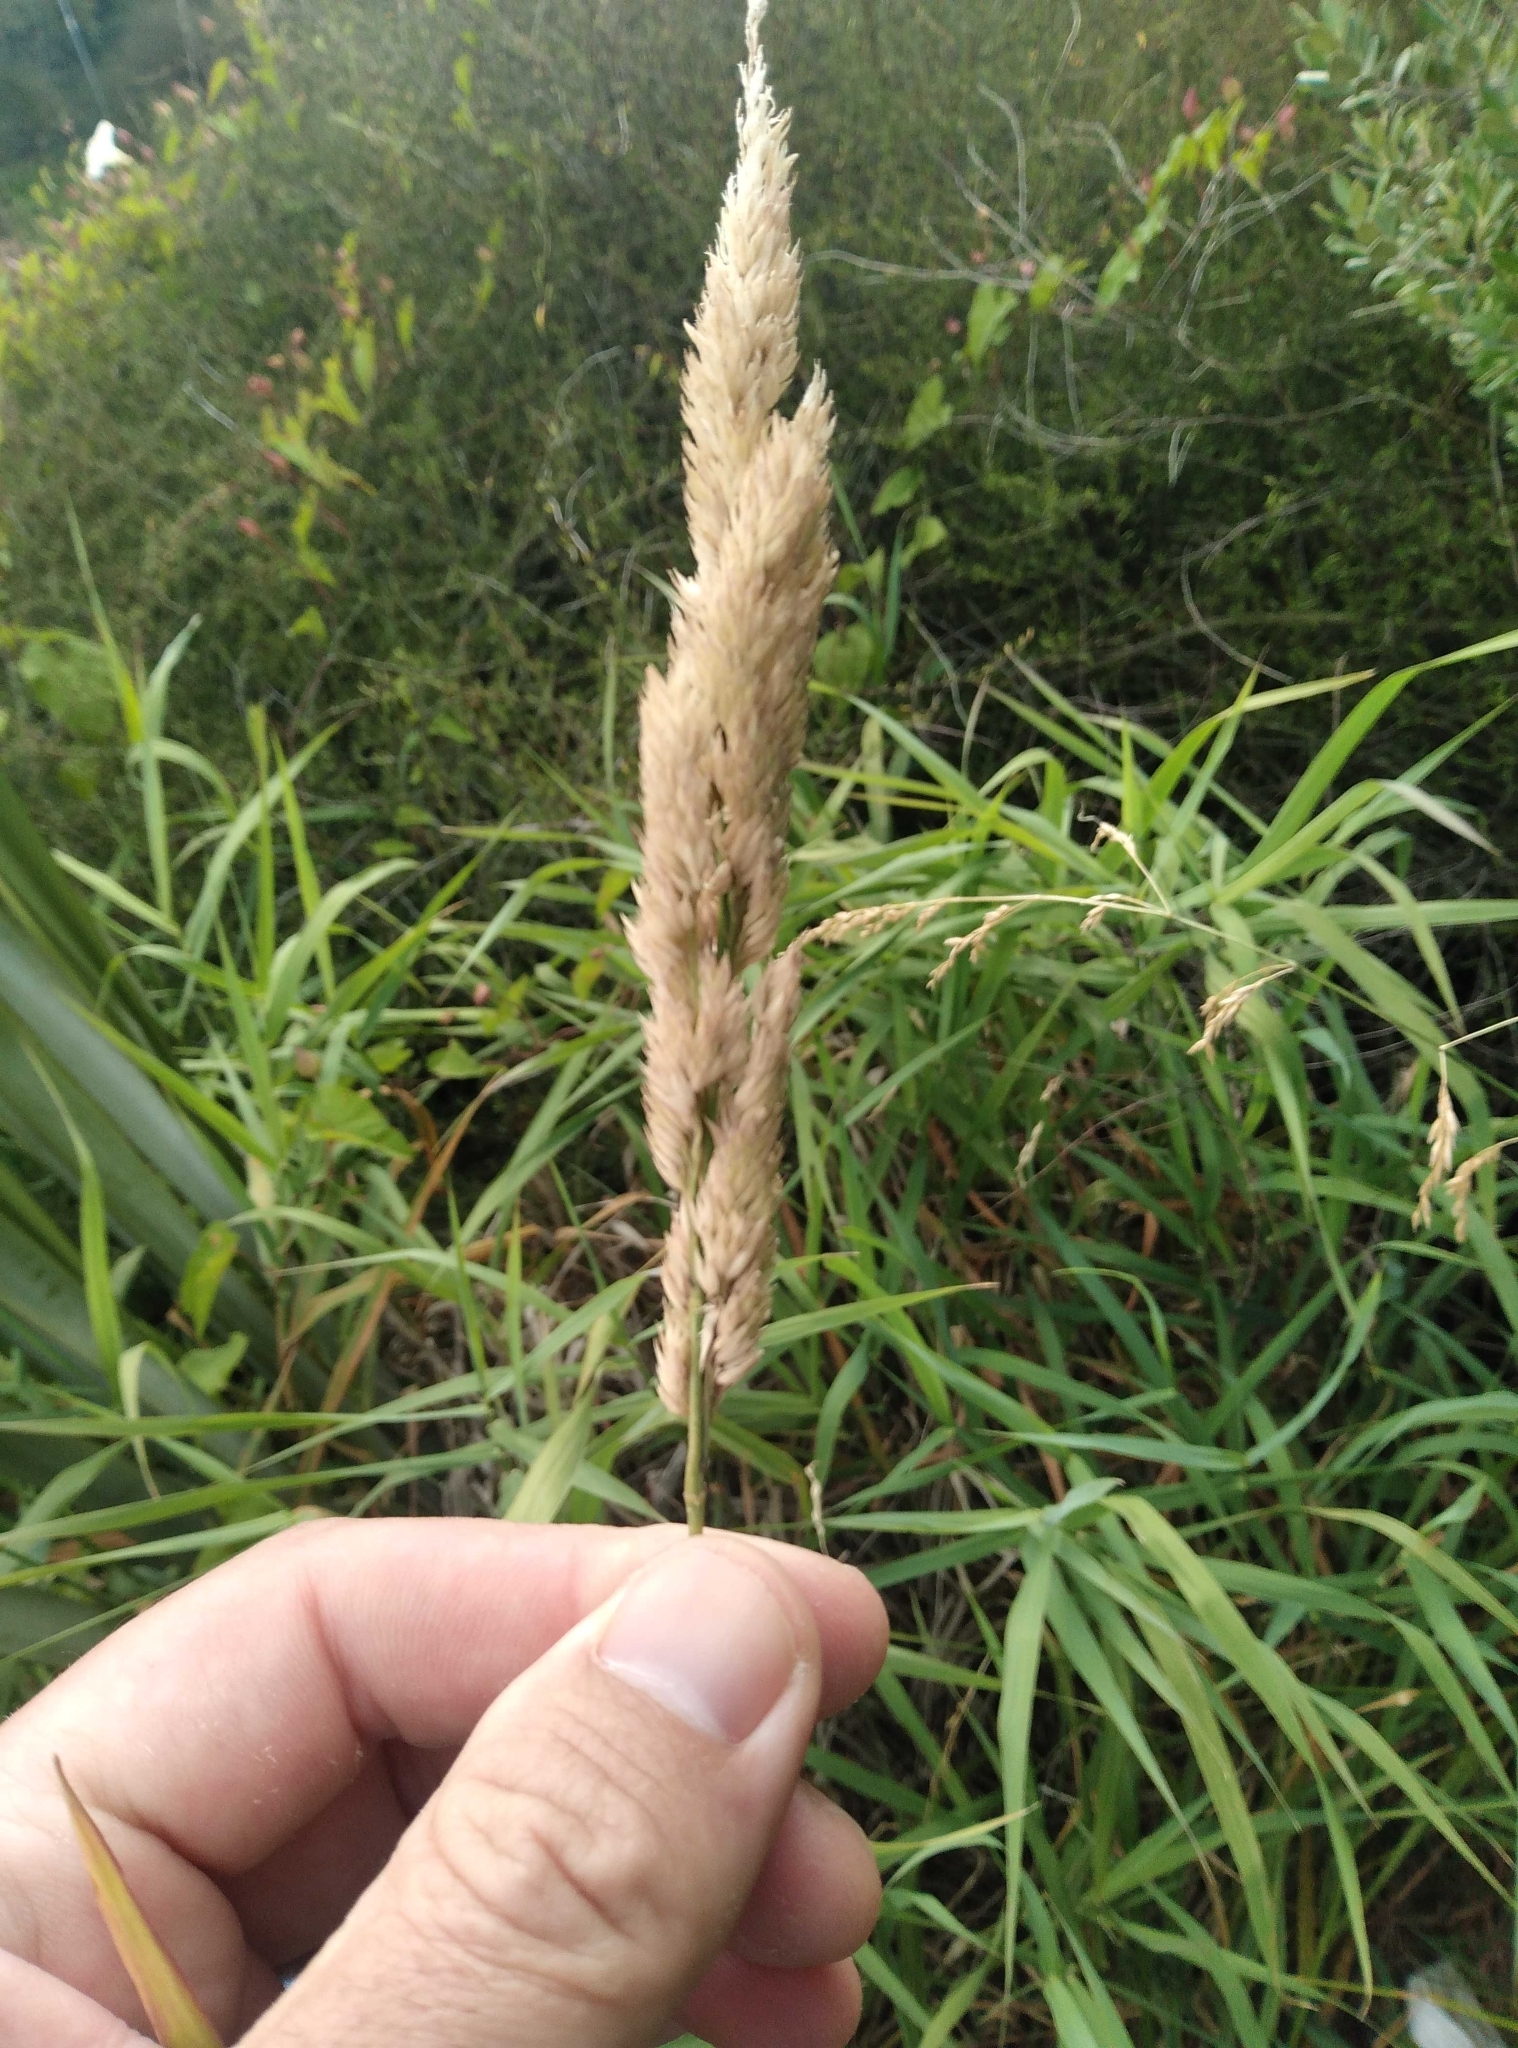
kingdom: Plantae
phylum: Tracheophyta
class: Liliopsida
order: Poales
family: Poaceae
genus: Phalaris
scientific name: Phalaris arundinacea
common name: Reed canary-grass
